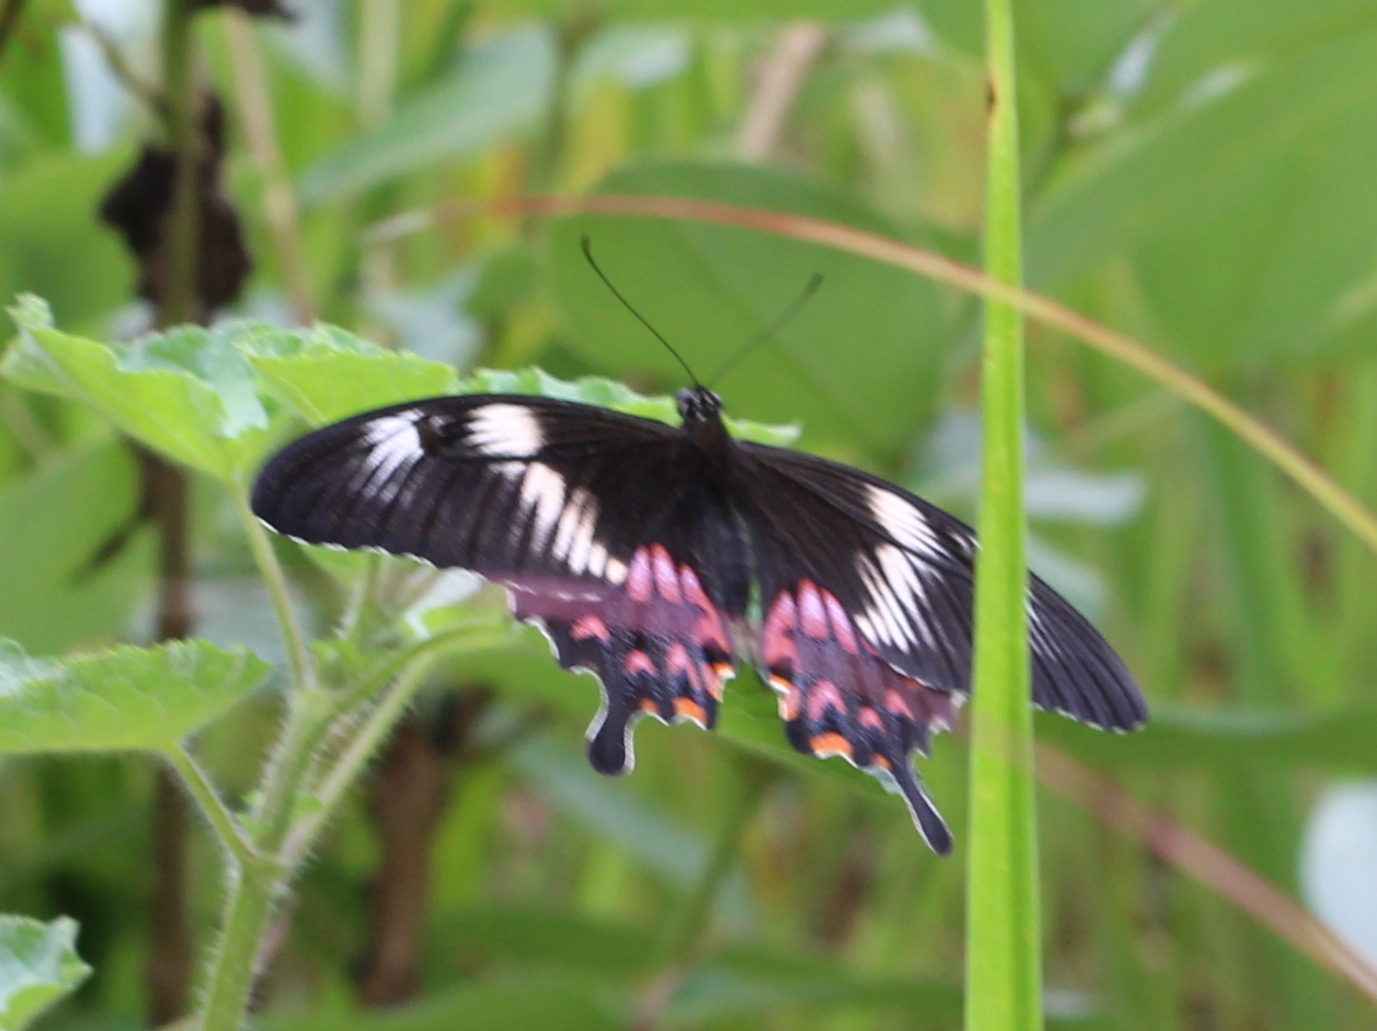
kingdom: Animalia
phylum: Arthropoda
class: Insecta
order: Lepidoptera
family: Papilionidae
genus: Papilio
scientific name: Papilio polytes
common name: Common mormon
